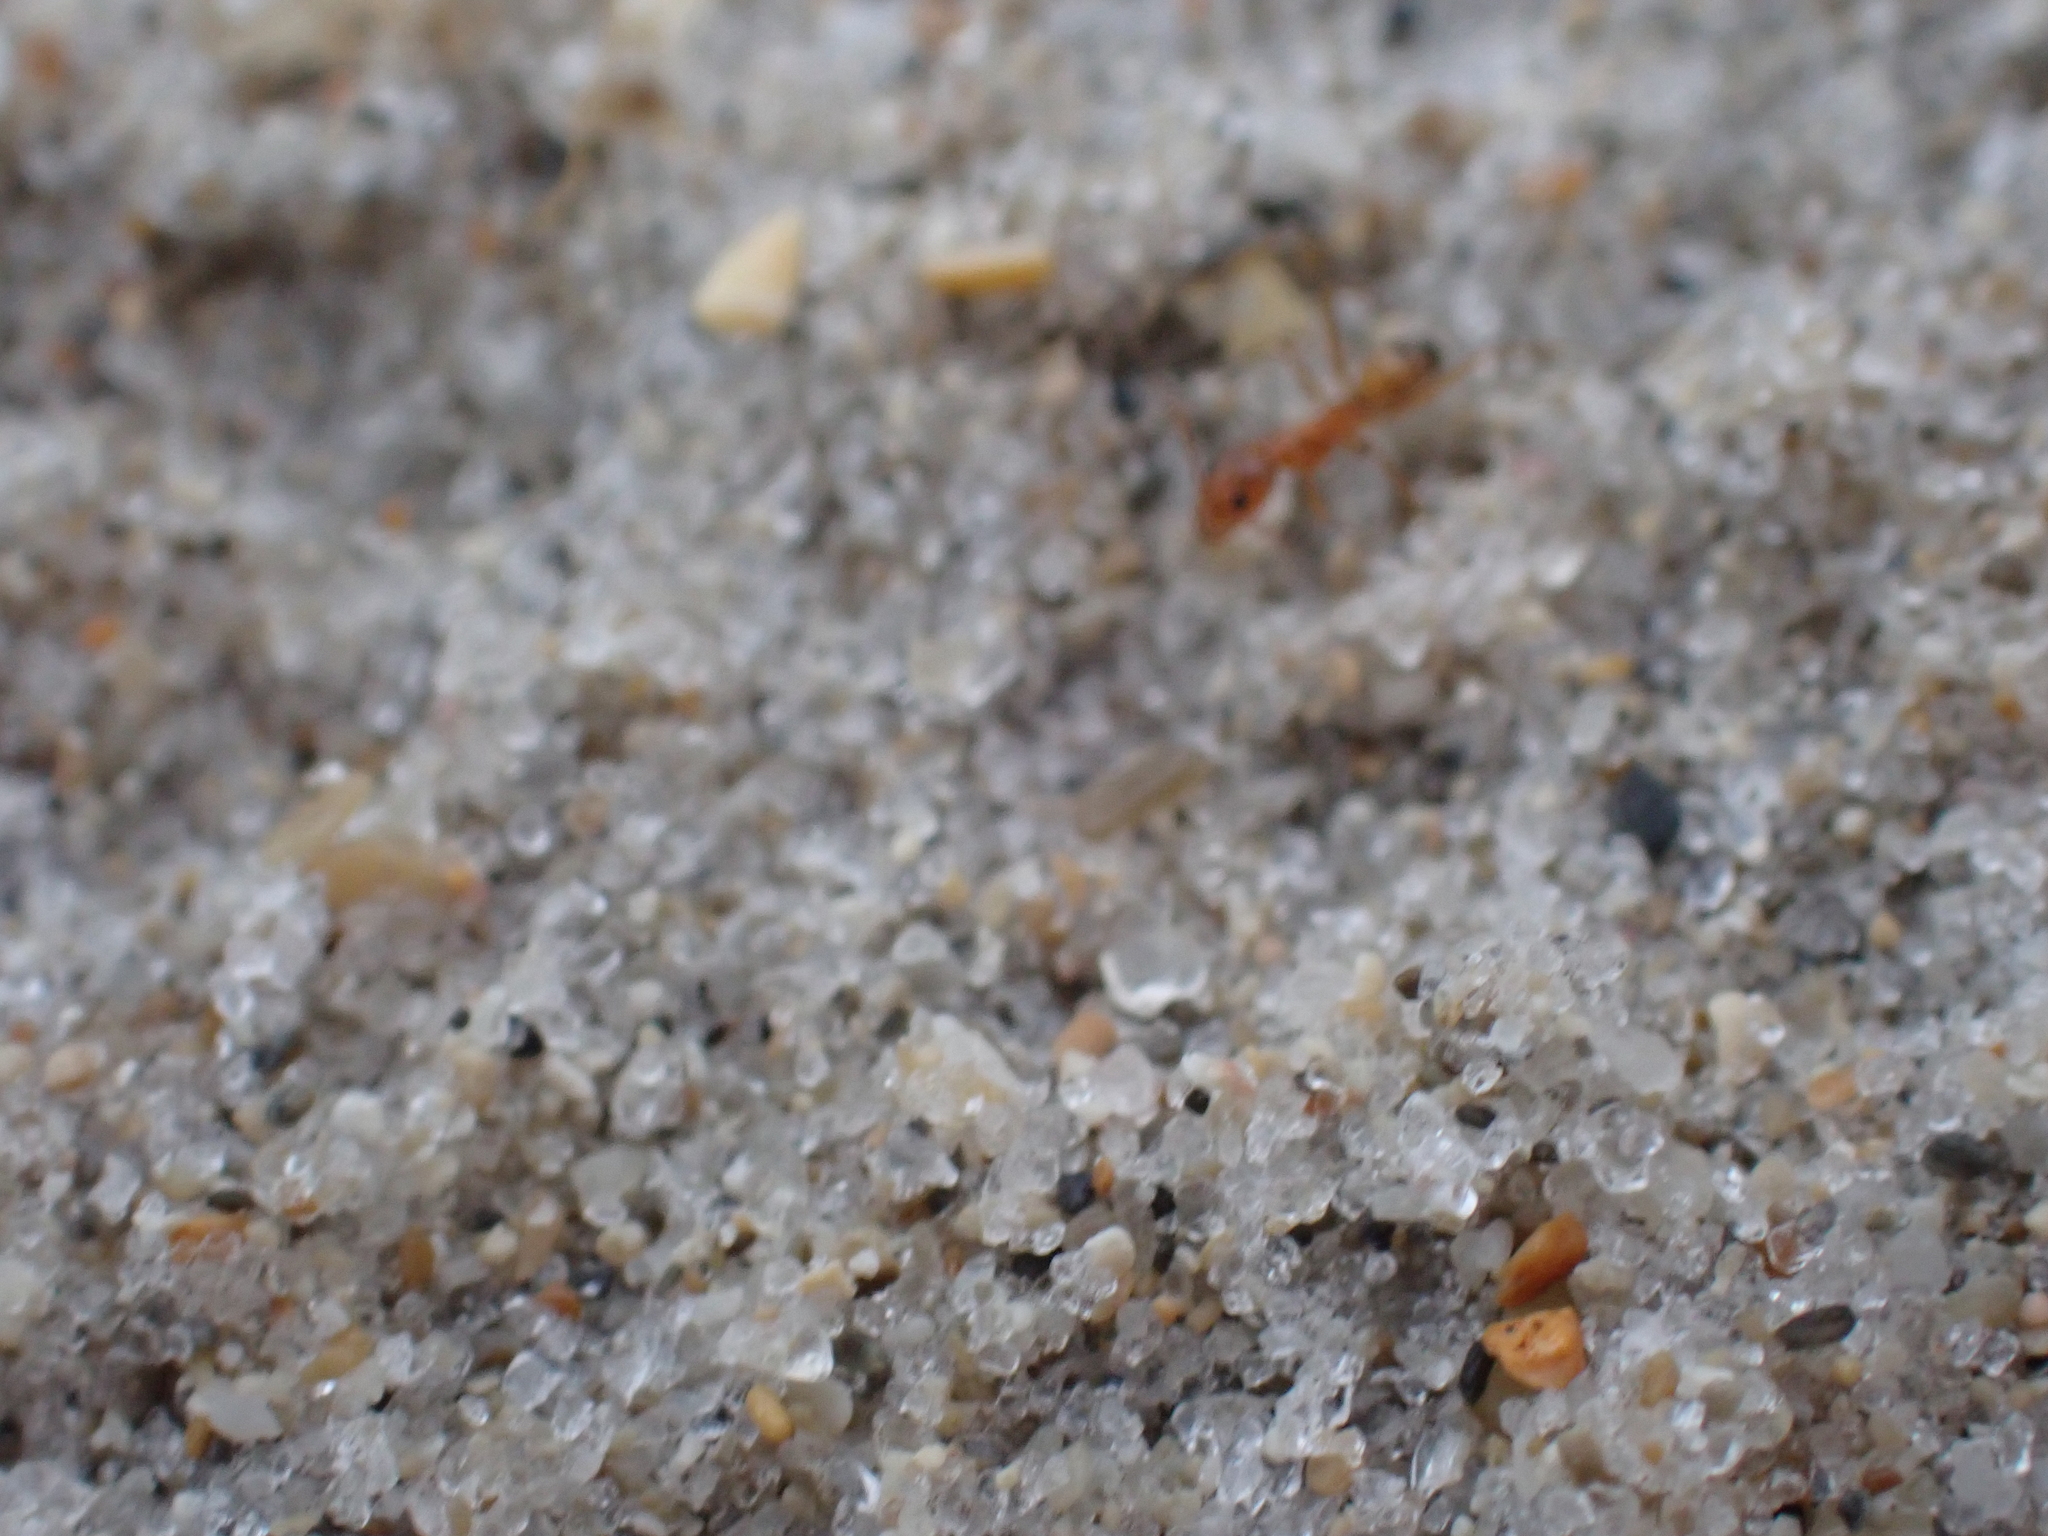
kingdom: Animalia
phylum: Arthropoda
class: Insecta
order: Hymenoptera
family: Formicidae
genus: Dorymyrmex
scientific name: Dorymyrmex bureni
